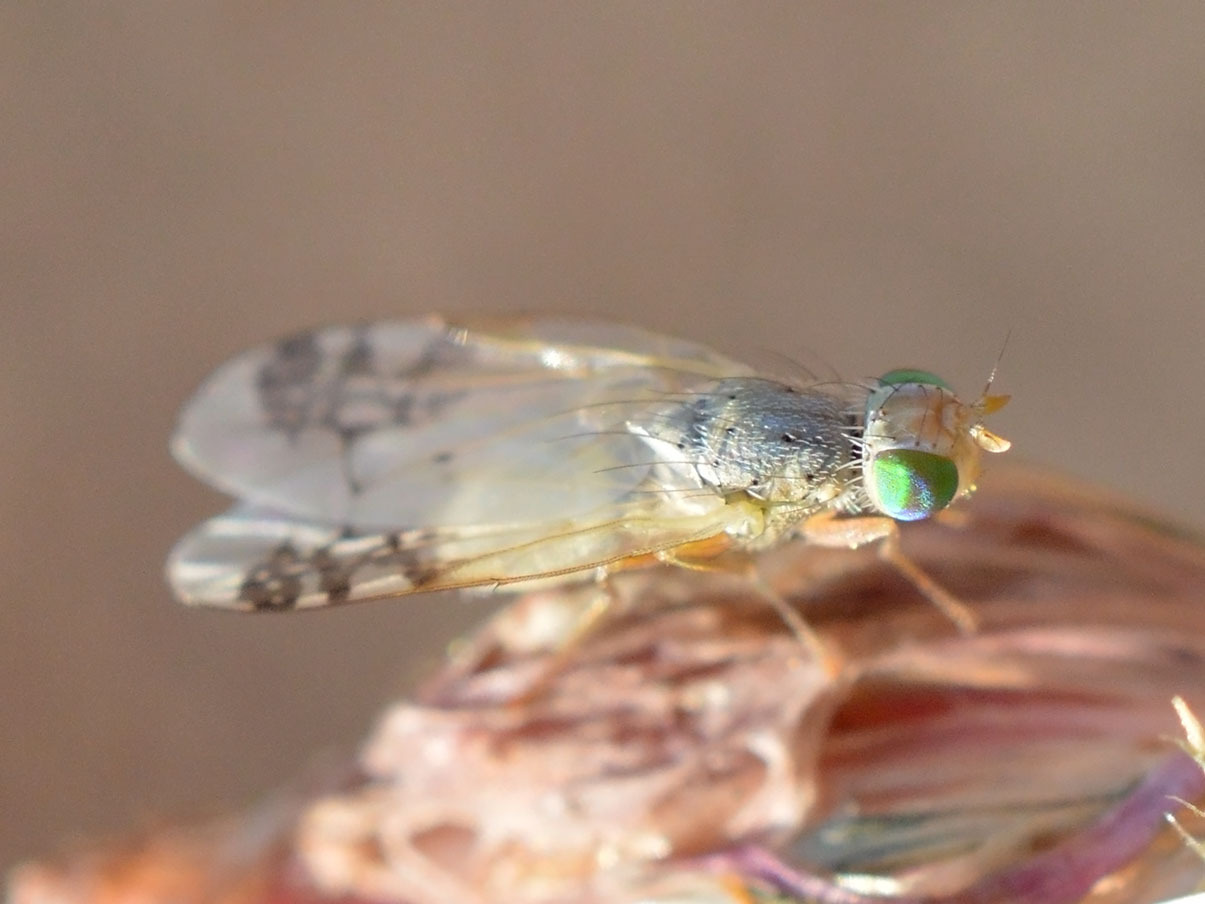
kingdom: Animalia
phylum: Arthropoda
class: Insecta
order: Diptera
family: Tephritidae
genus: Acanthiophilus
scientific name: Acanthiophilus helianthi
